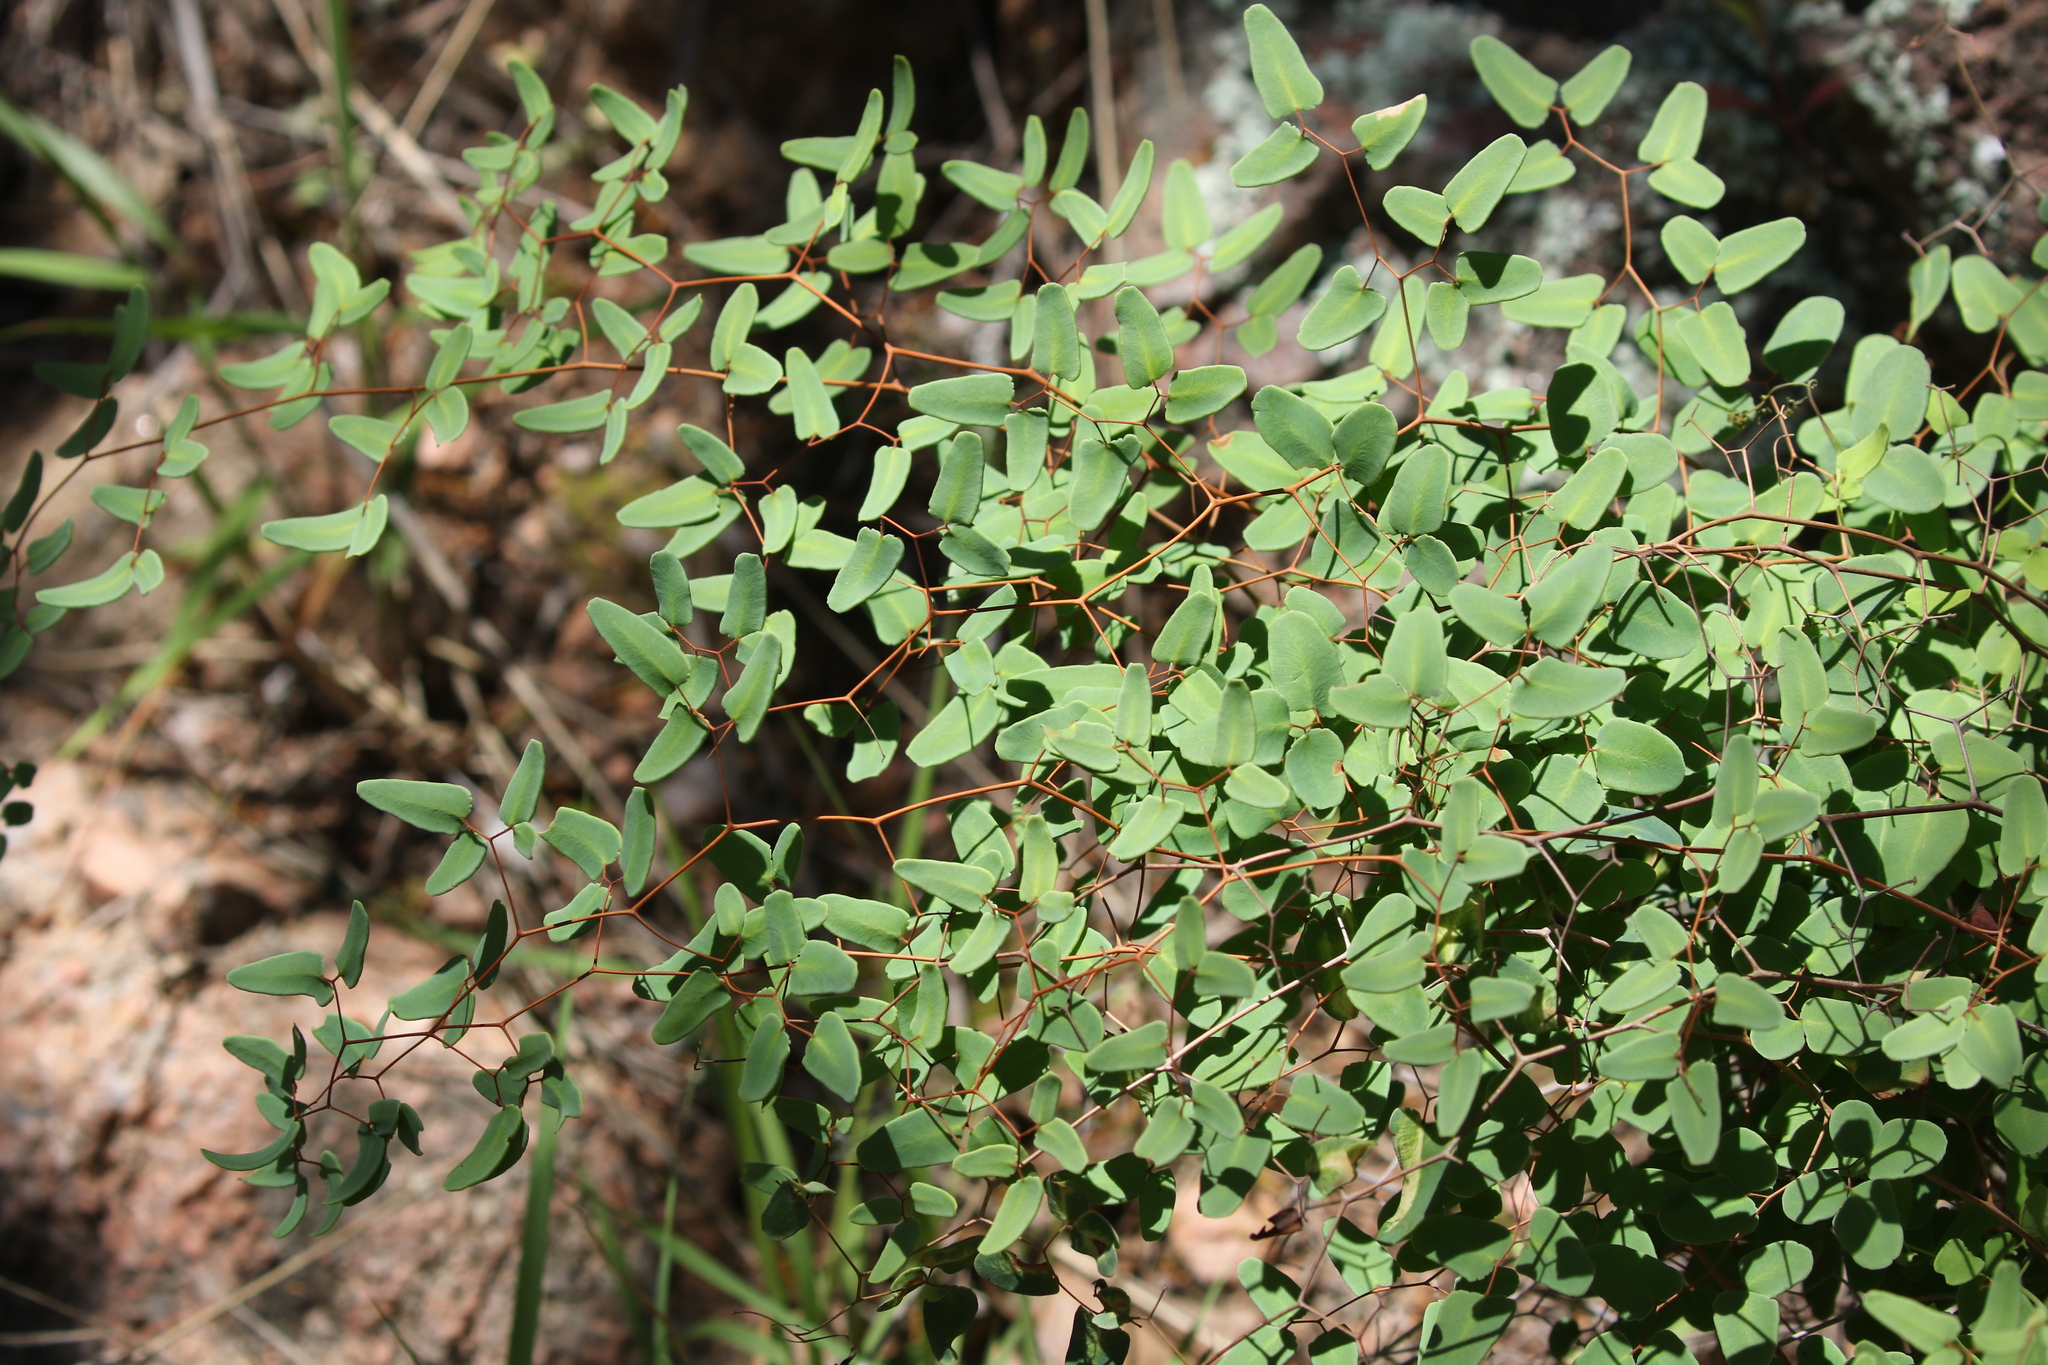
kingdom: Plantae
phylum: Tracheophyta
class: Polypodiopsida
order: Polypodiales
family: Pteridaceae
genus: Pellaea
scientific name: Pellaea ovata
